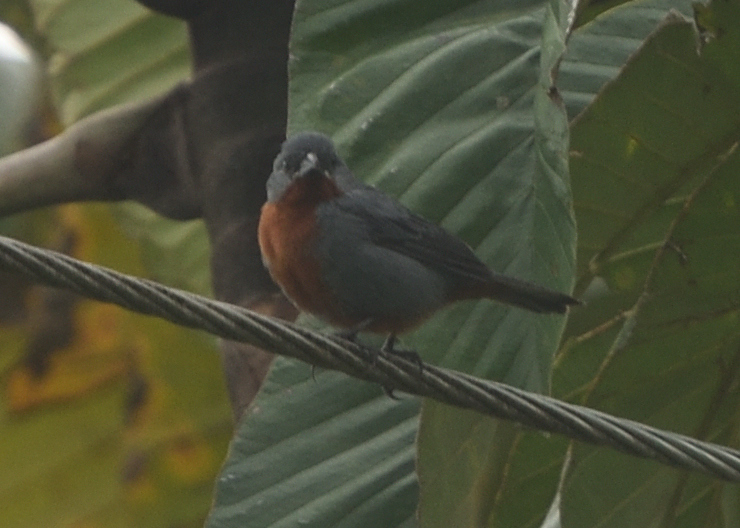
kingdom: Animalia
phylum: Chordata
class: Aves
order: Passeriformes
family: Thraupidae
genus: Sporophila
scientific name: Sporophila castaneiventris
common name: Chestnut-bellied seedeater
